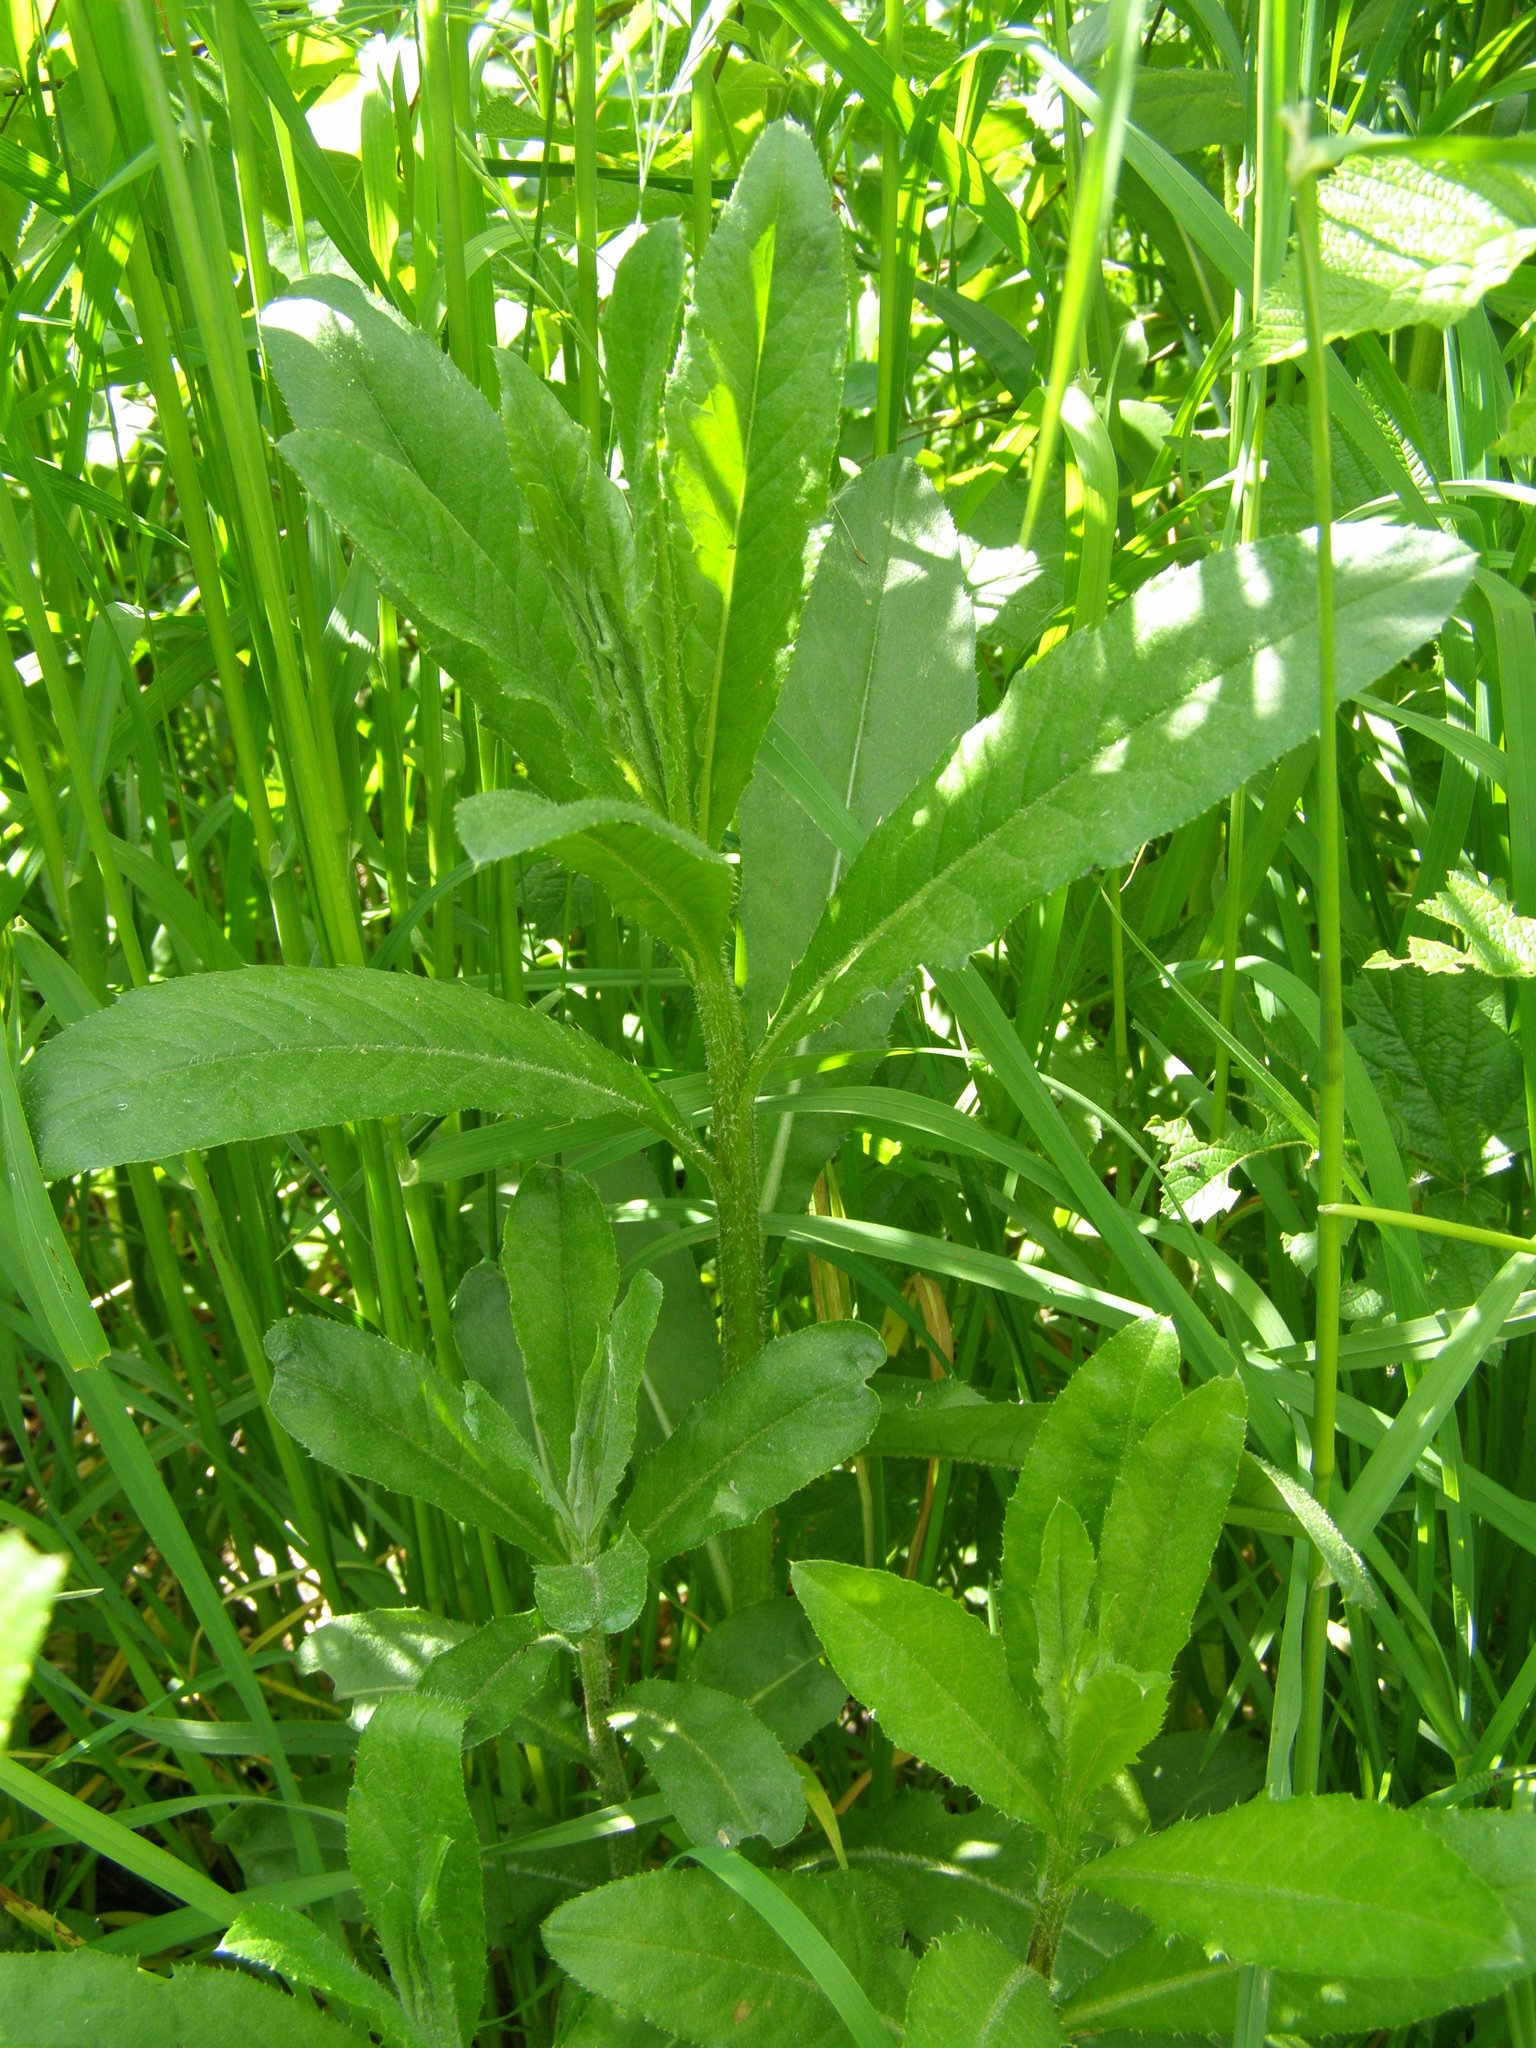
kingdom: Plantae
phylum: Tracheophyta
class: Magnoliopsida
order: Asterales
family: Asteraceae
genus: Cirsium
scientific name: Cirsium arvense
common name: Creeping thistle
